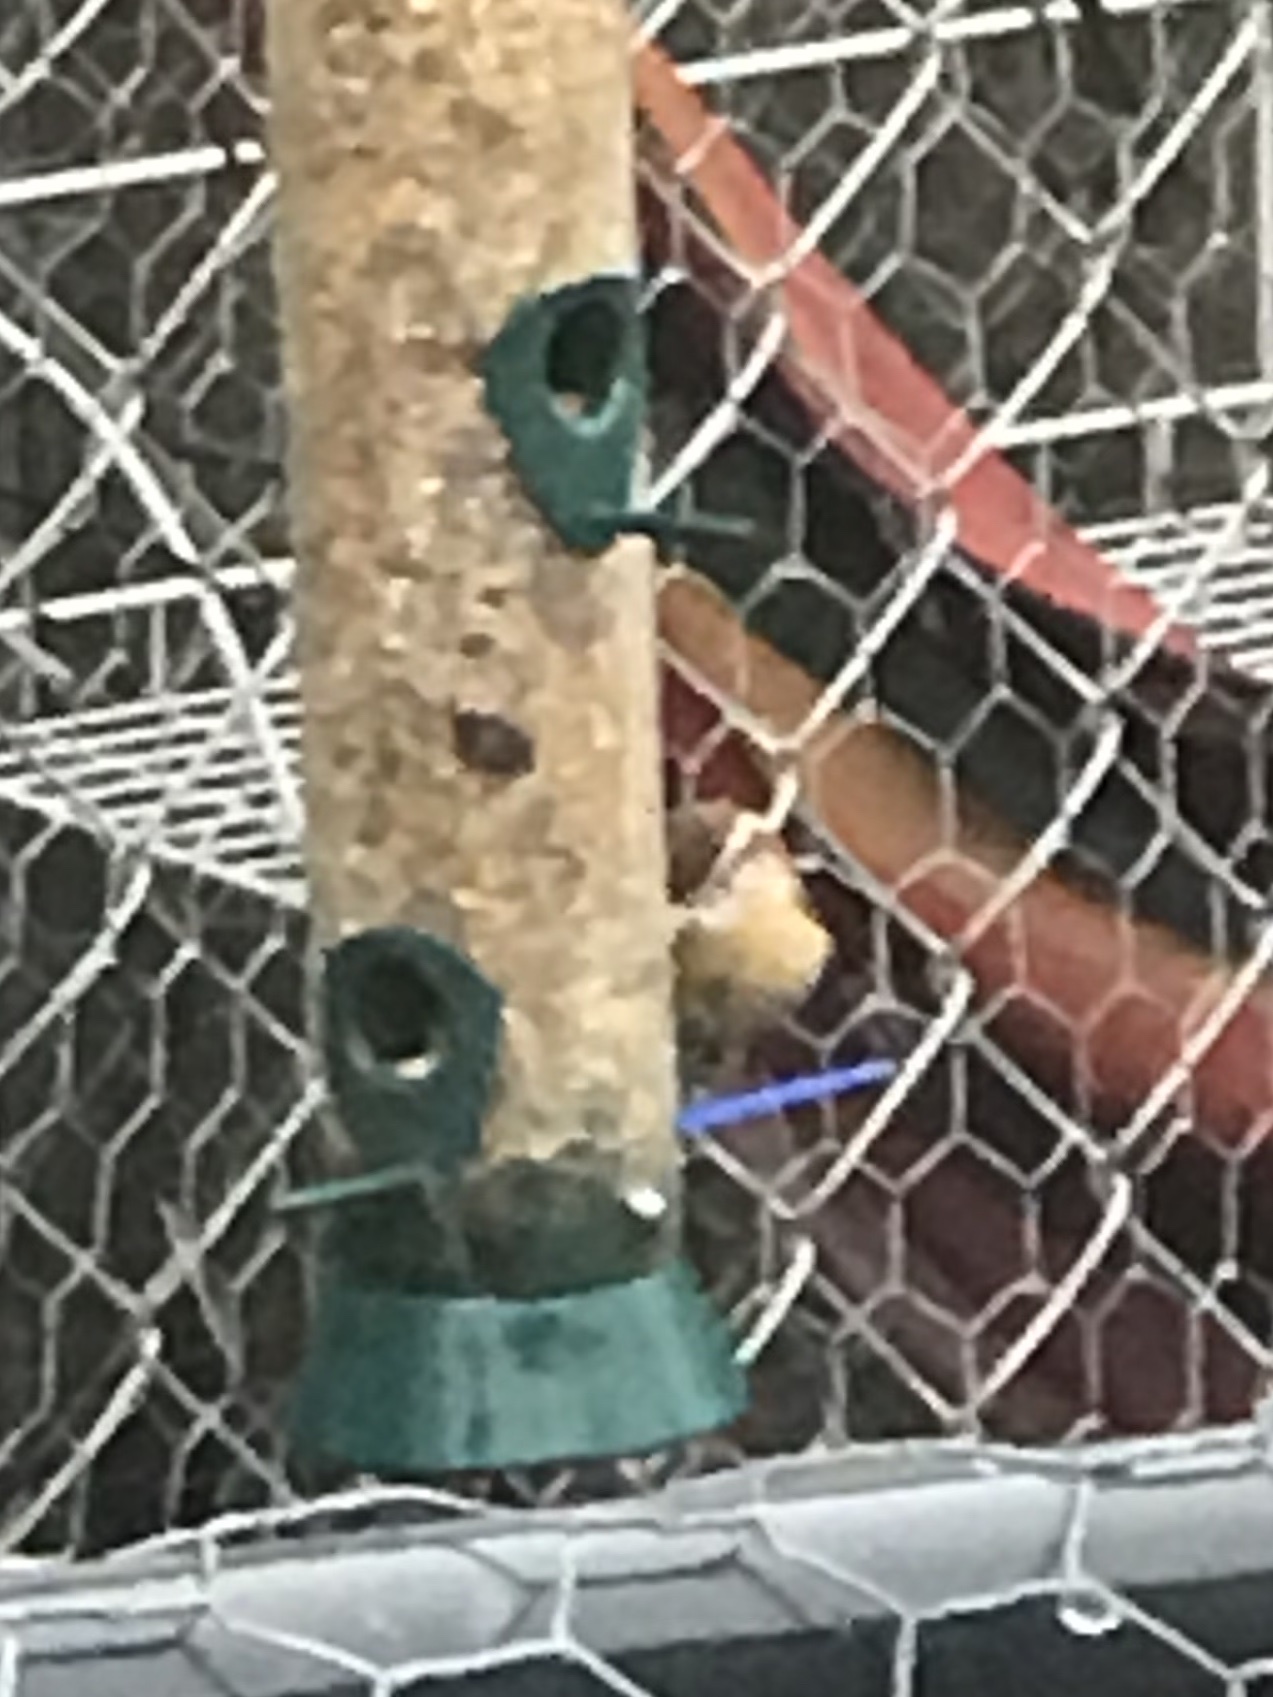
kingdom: Animalia
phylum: Chordata
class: Aves
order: Passeriformes
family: Troglodytidae
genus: Thryothorus
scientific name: Thryothorus ludovicianus
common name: Carolina wren
